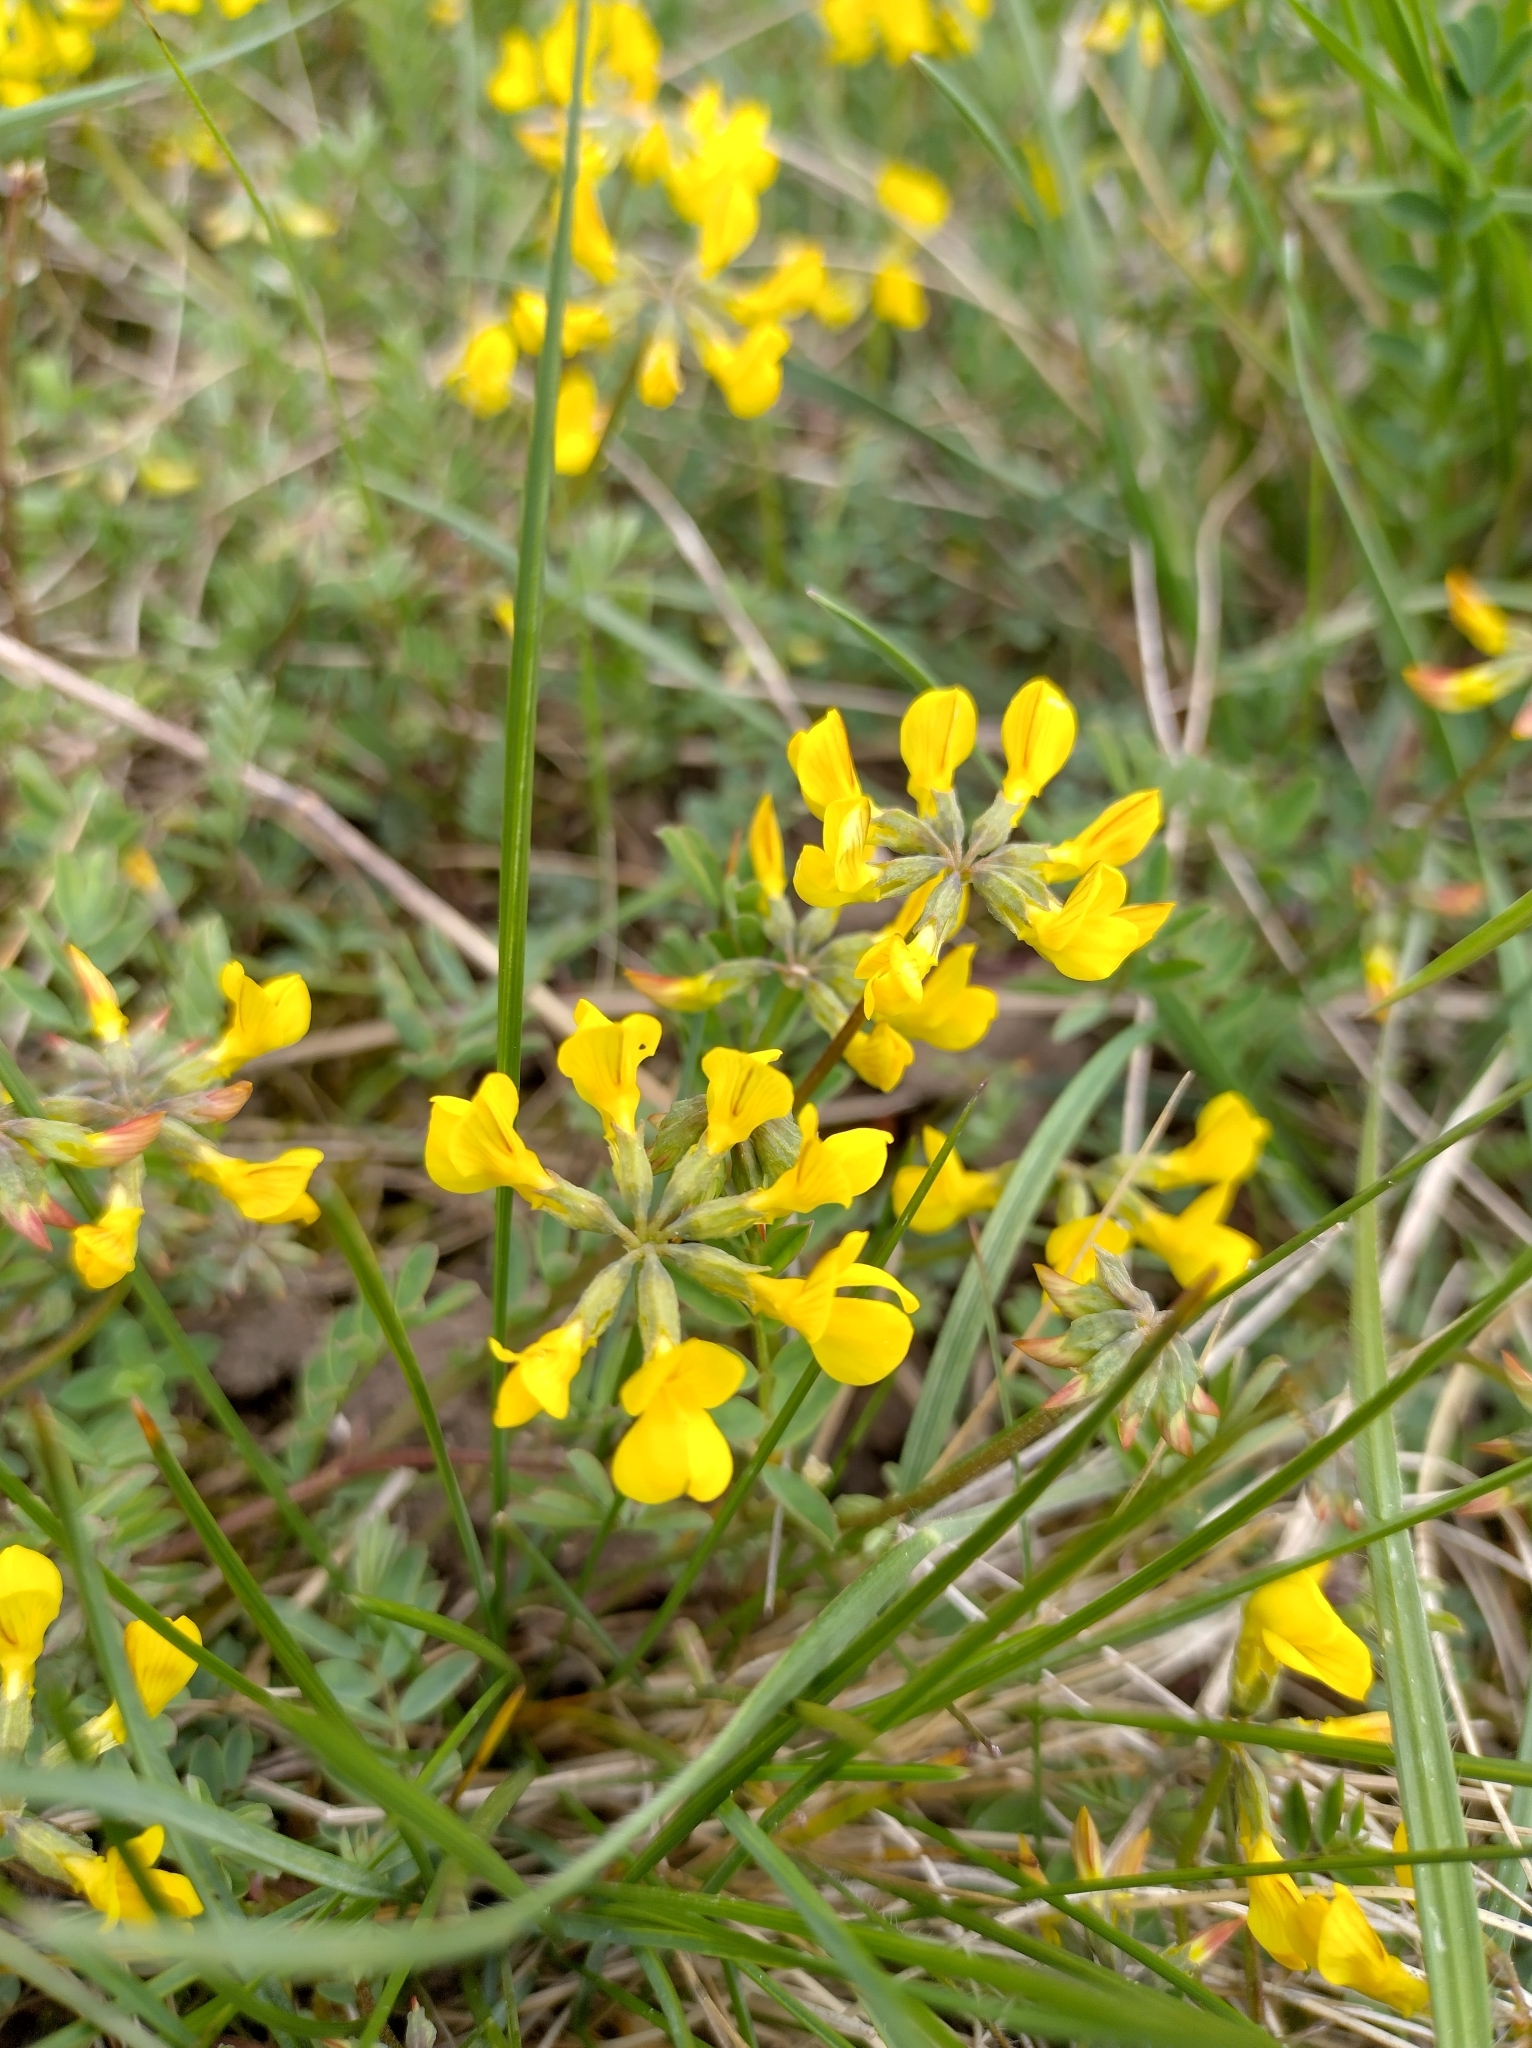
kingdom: Plantae
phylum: Tracheophyta
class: Magnoliopsida
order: Fabales
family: Fabaceae
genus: Hippocrepis
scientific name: Hippocrepis comosa
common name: Horseshoe vetch
